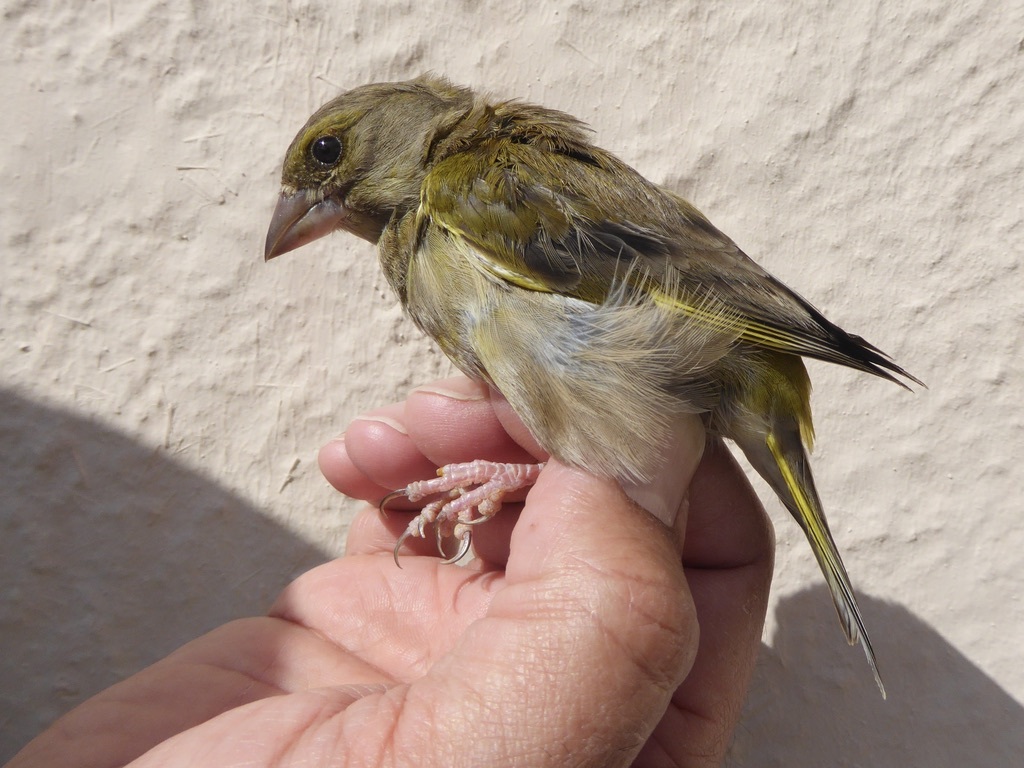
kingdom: Plantae
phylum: Tracheophyta
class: Liliopsida
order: Poales
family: Poaceae
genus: Chloris
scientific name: Chloris chloris
